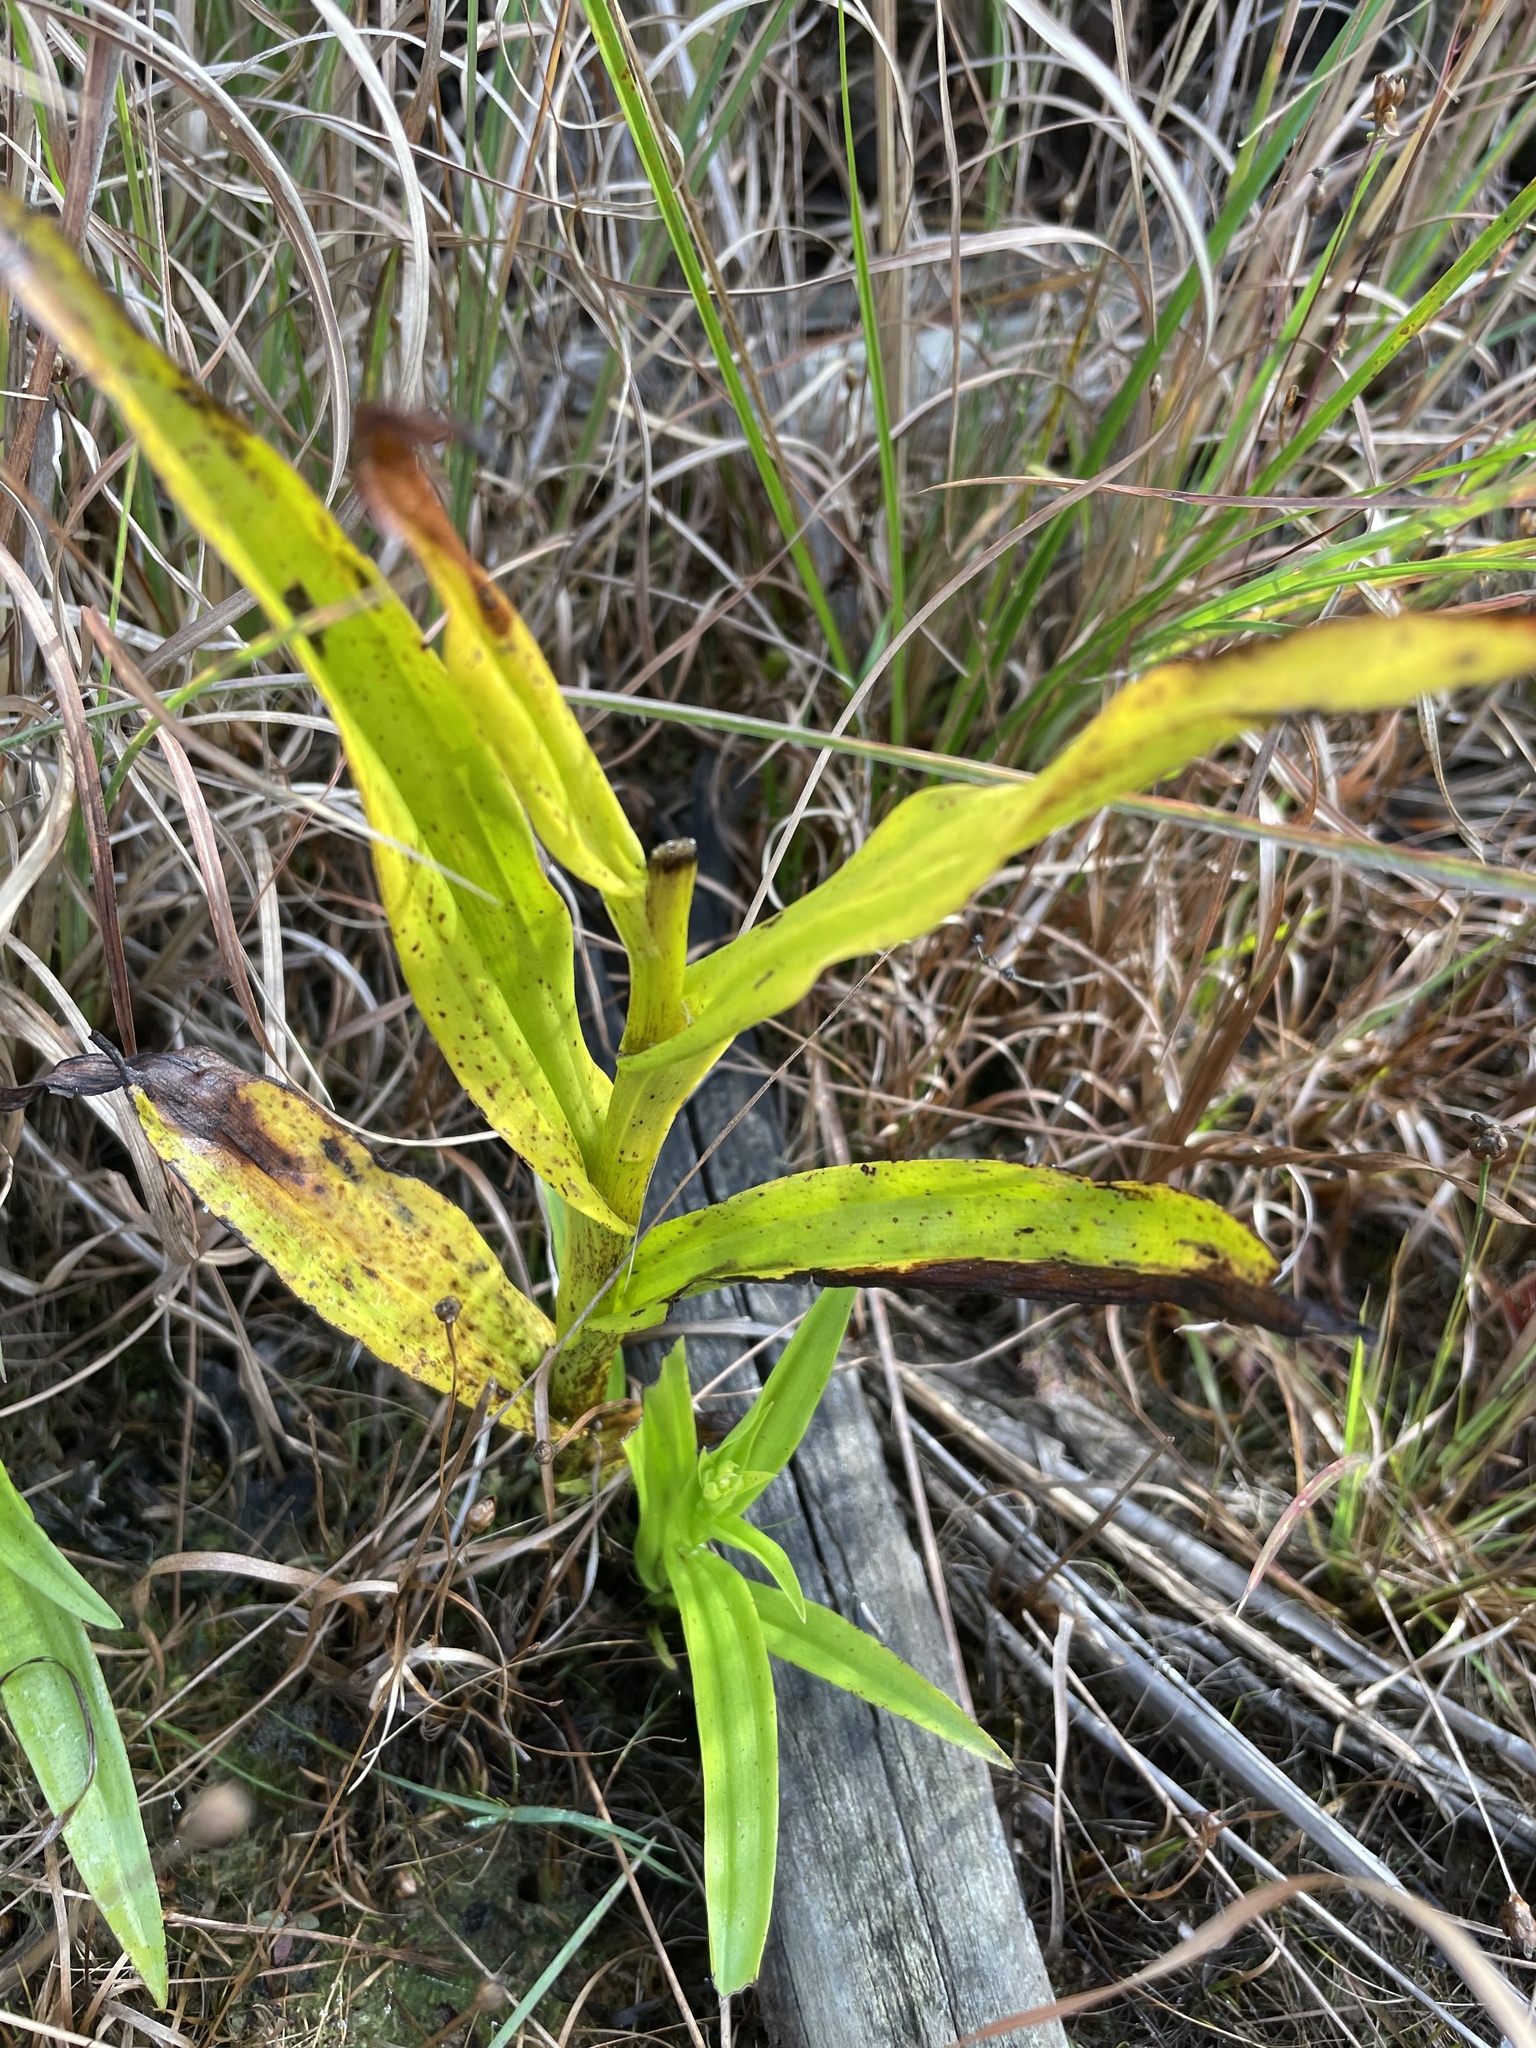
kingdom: Plantae
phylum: Tracheophyta
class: Liliopsida
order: Asparagales
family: Orchidaceae
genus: Habenaria
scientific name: Habenaria repens
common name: Water orchid
